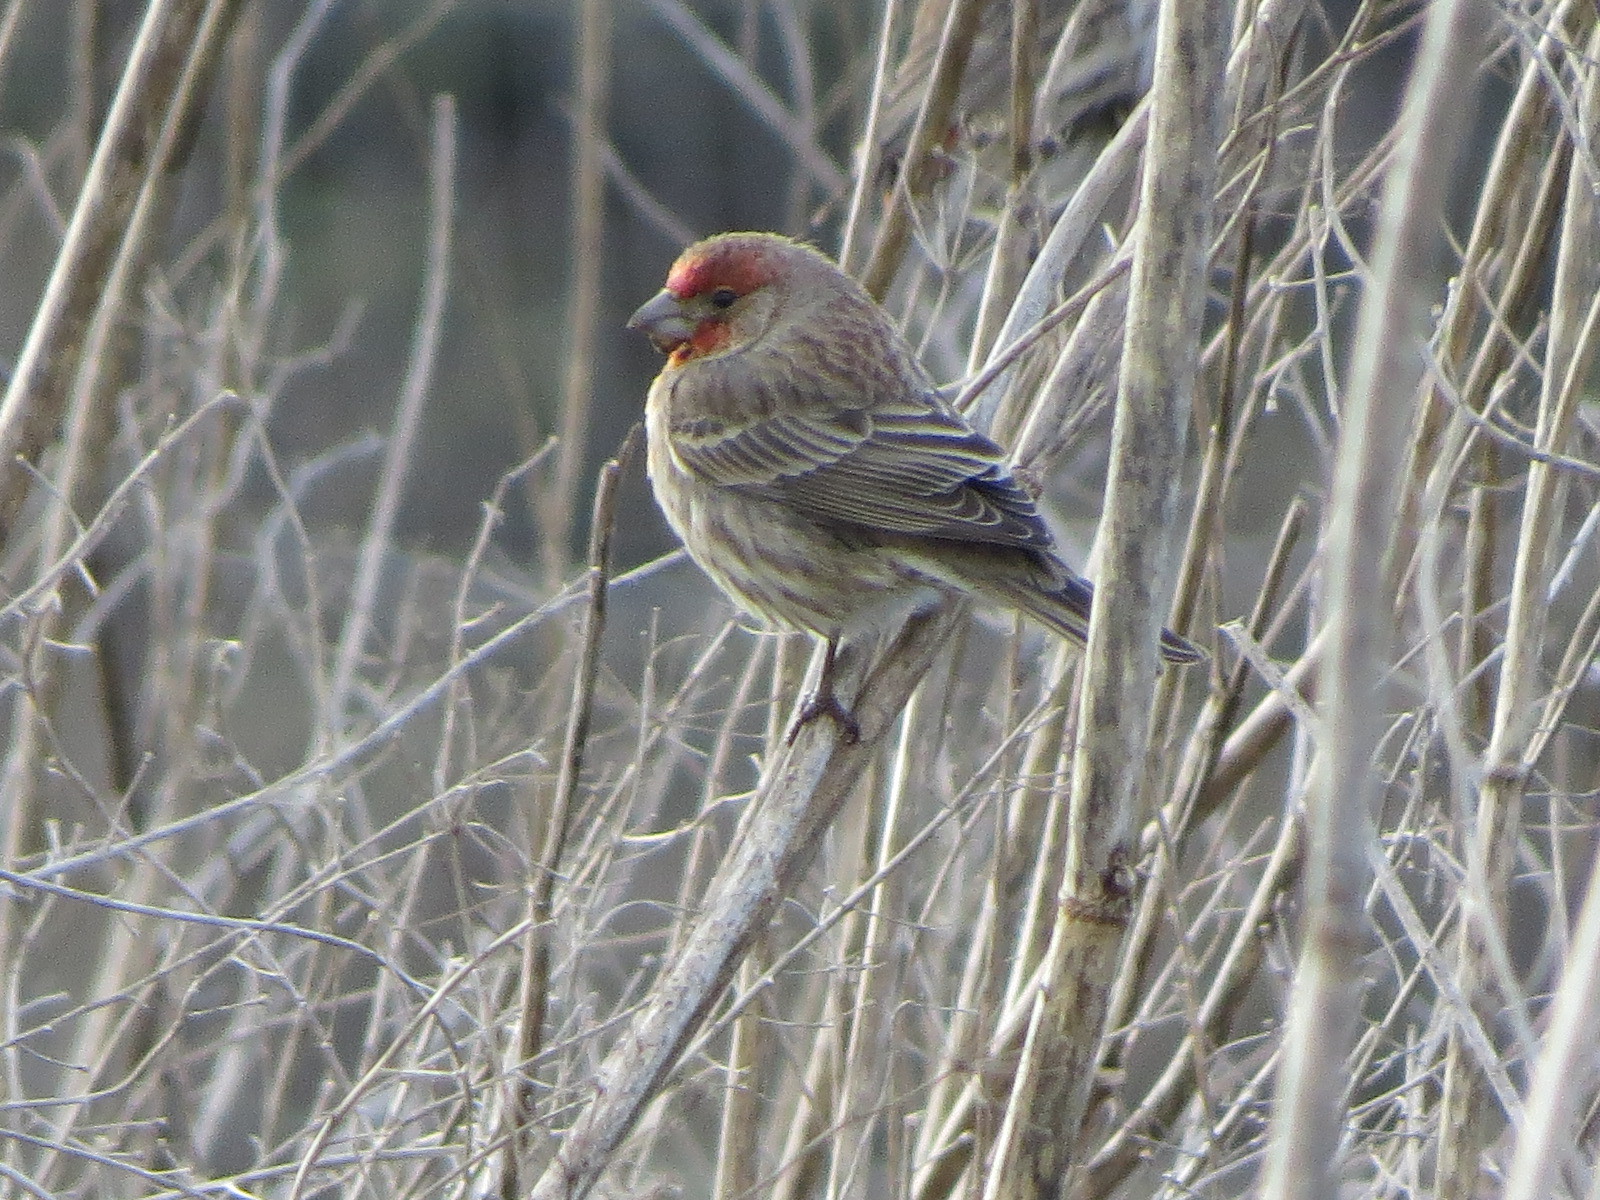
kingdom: Animalia
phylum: Chordata
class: Aves
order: Passeriformes
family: Fringillidae
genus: Haemorhous
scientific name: Haemorhous mexicanus
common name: House finch
